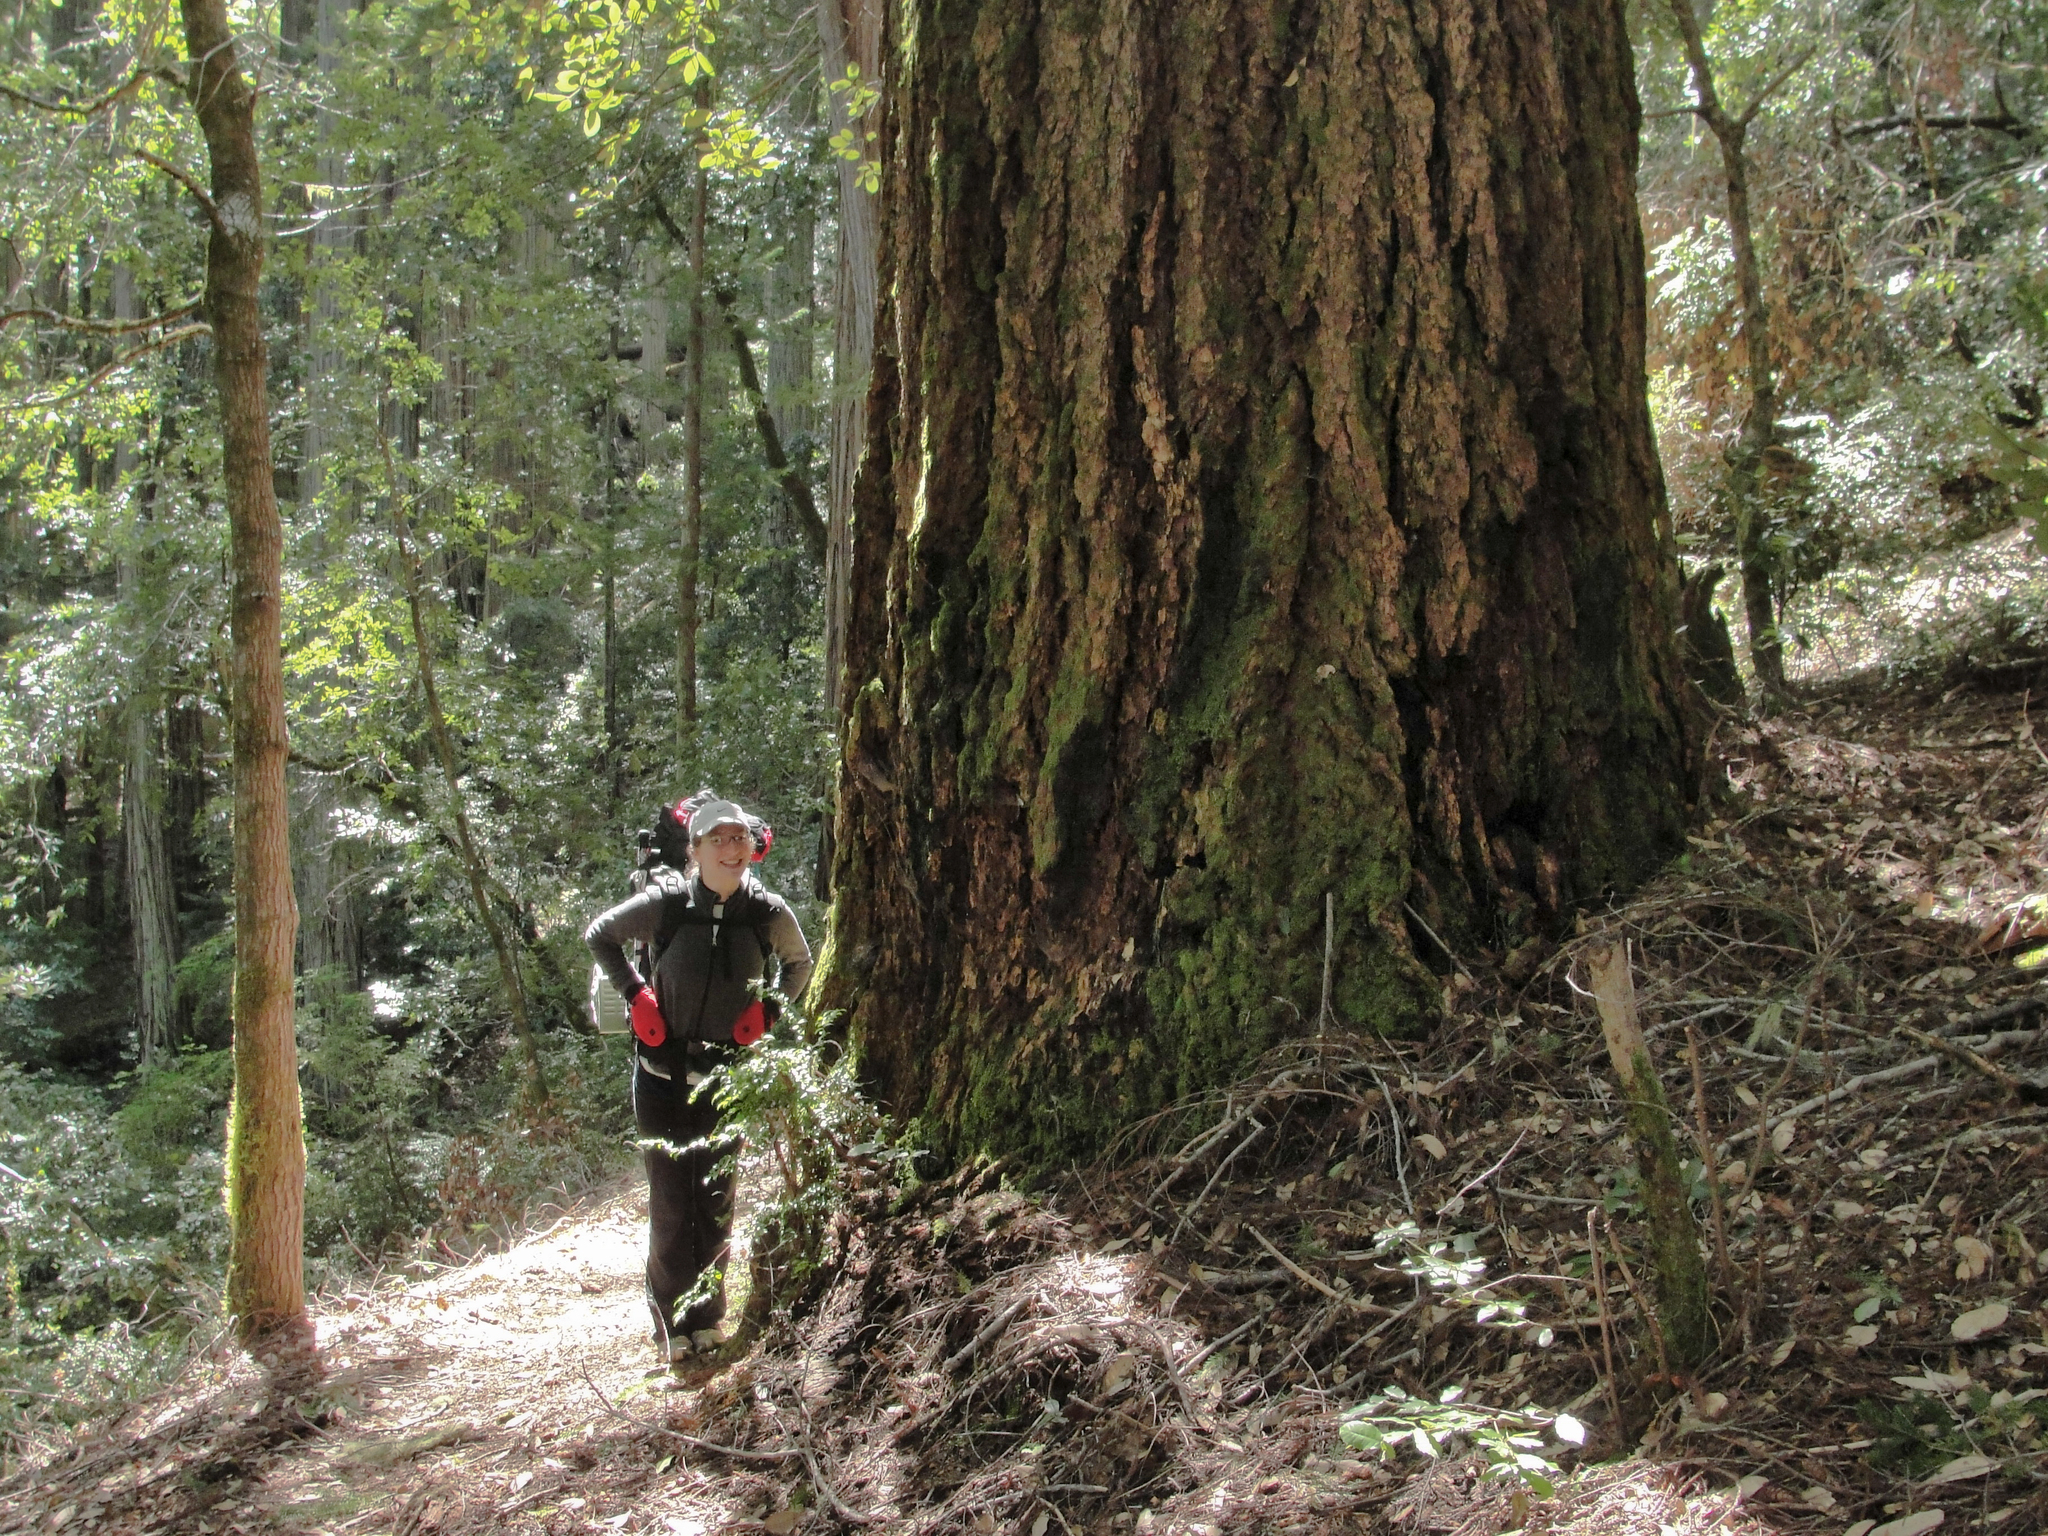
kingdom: Plantae
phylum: Tracheophyta
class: Pinopsida
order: Pinales
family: Pinaceae
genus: Pseudotsuga
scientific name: Pseudotsuga menziesii
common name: Douglas fir
